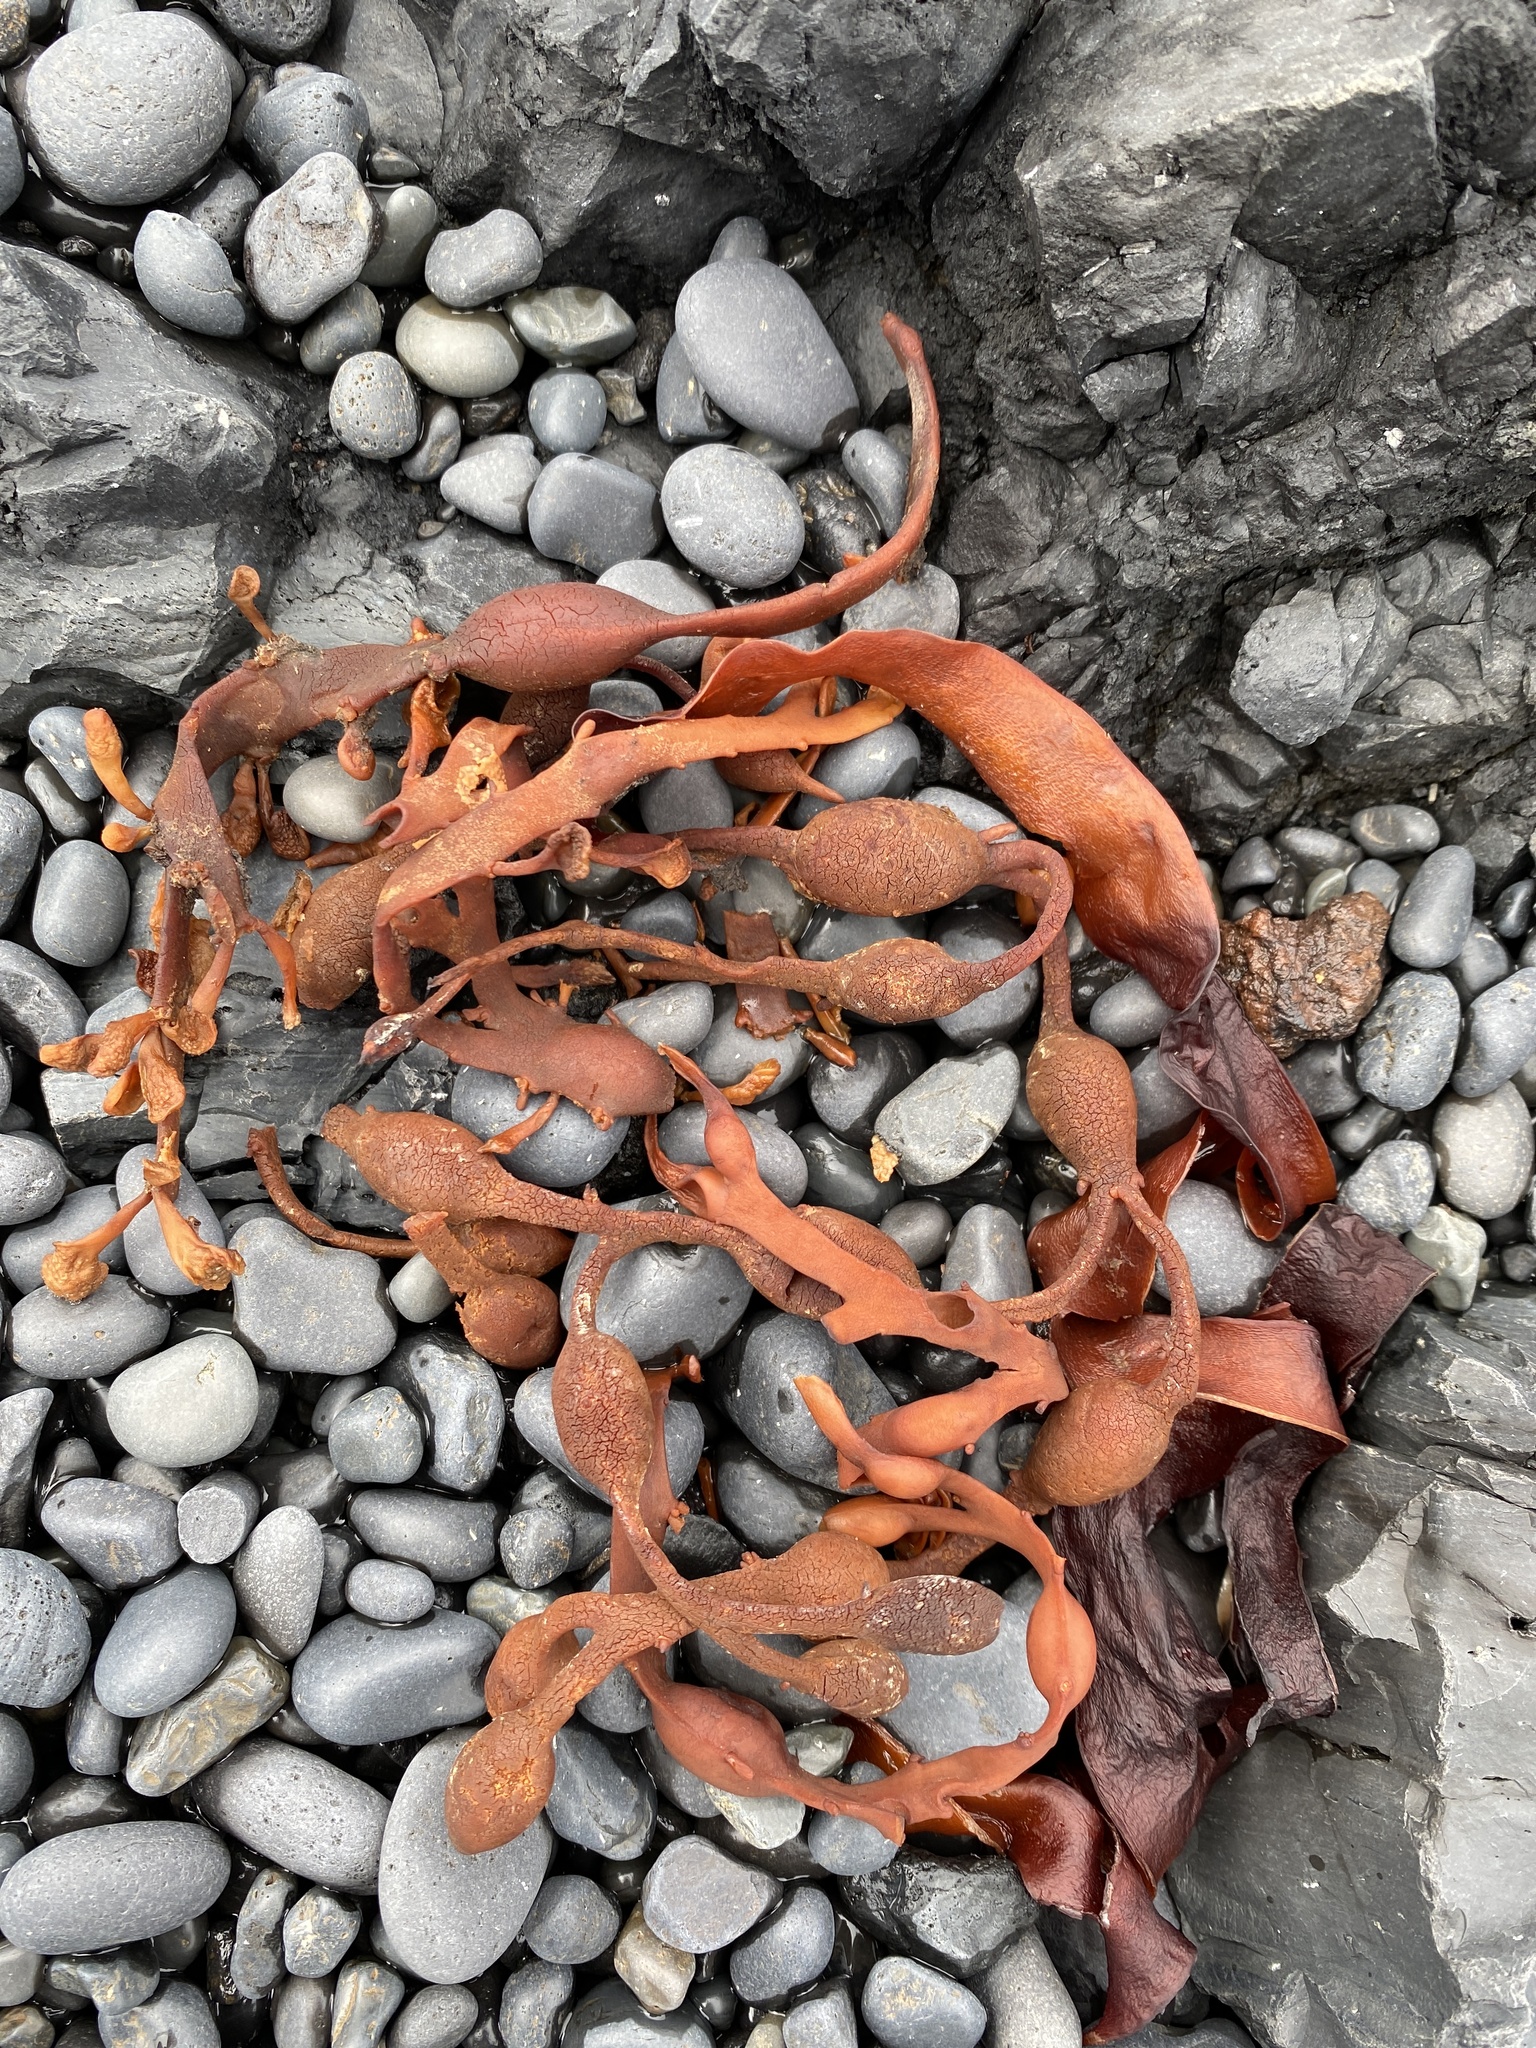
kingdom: Chromista
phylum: Ochrophyta
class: Phaeophyceae
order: Fucales
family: Fucaceae
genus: Ascophyllum
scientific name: Ascophyllum nodosum
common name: Knotted wrack
